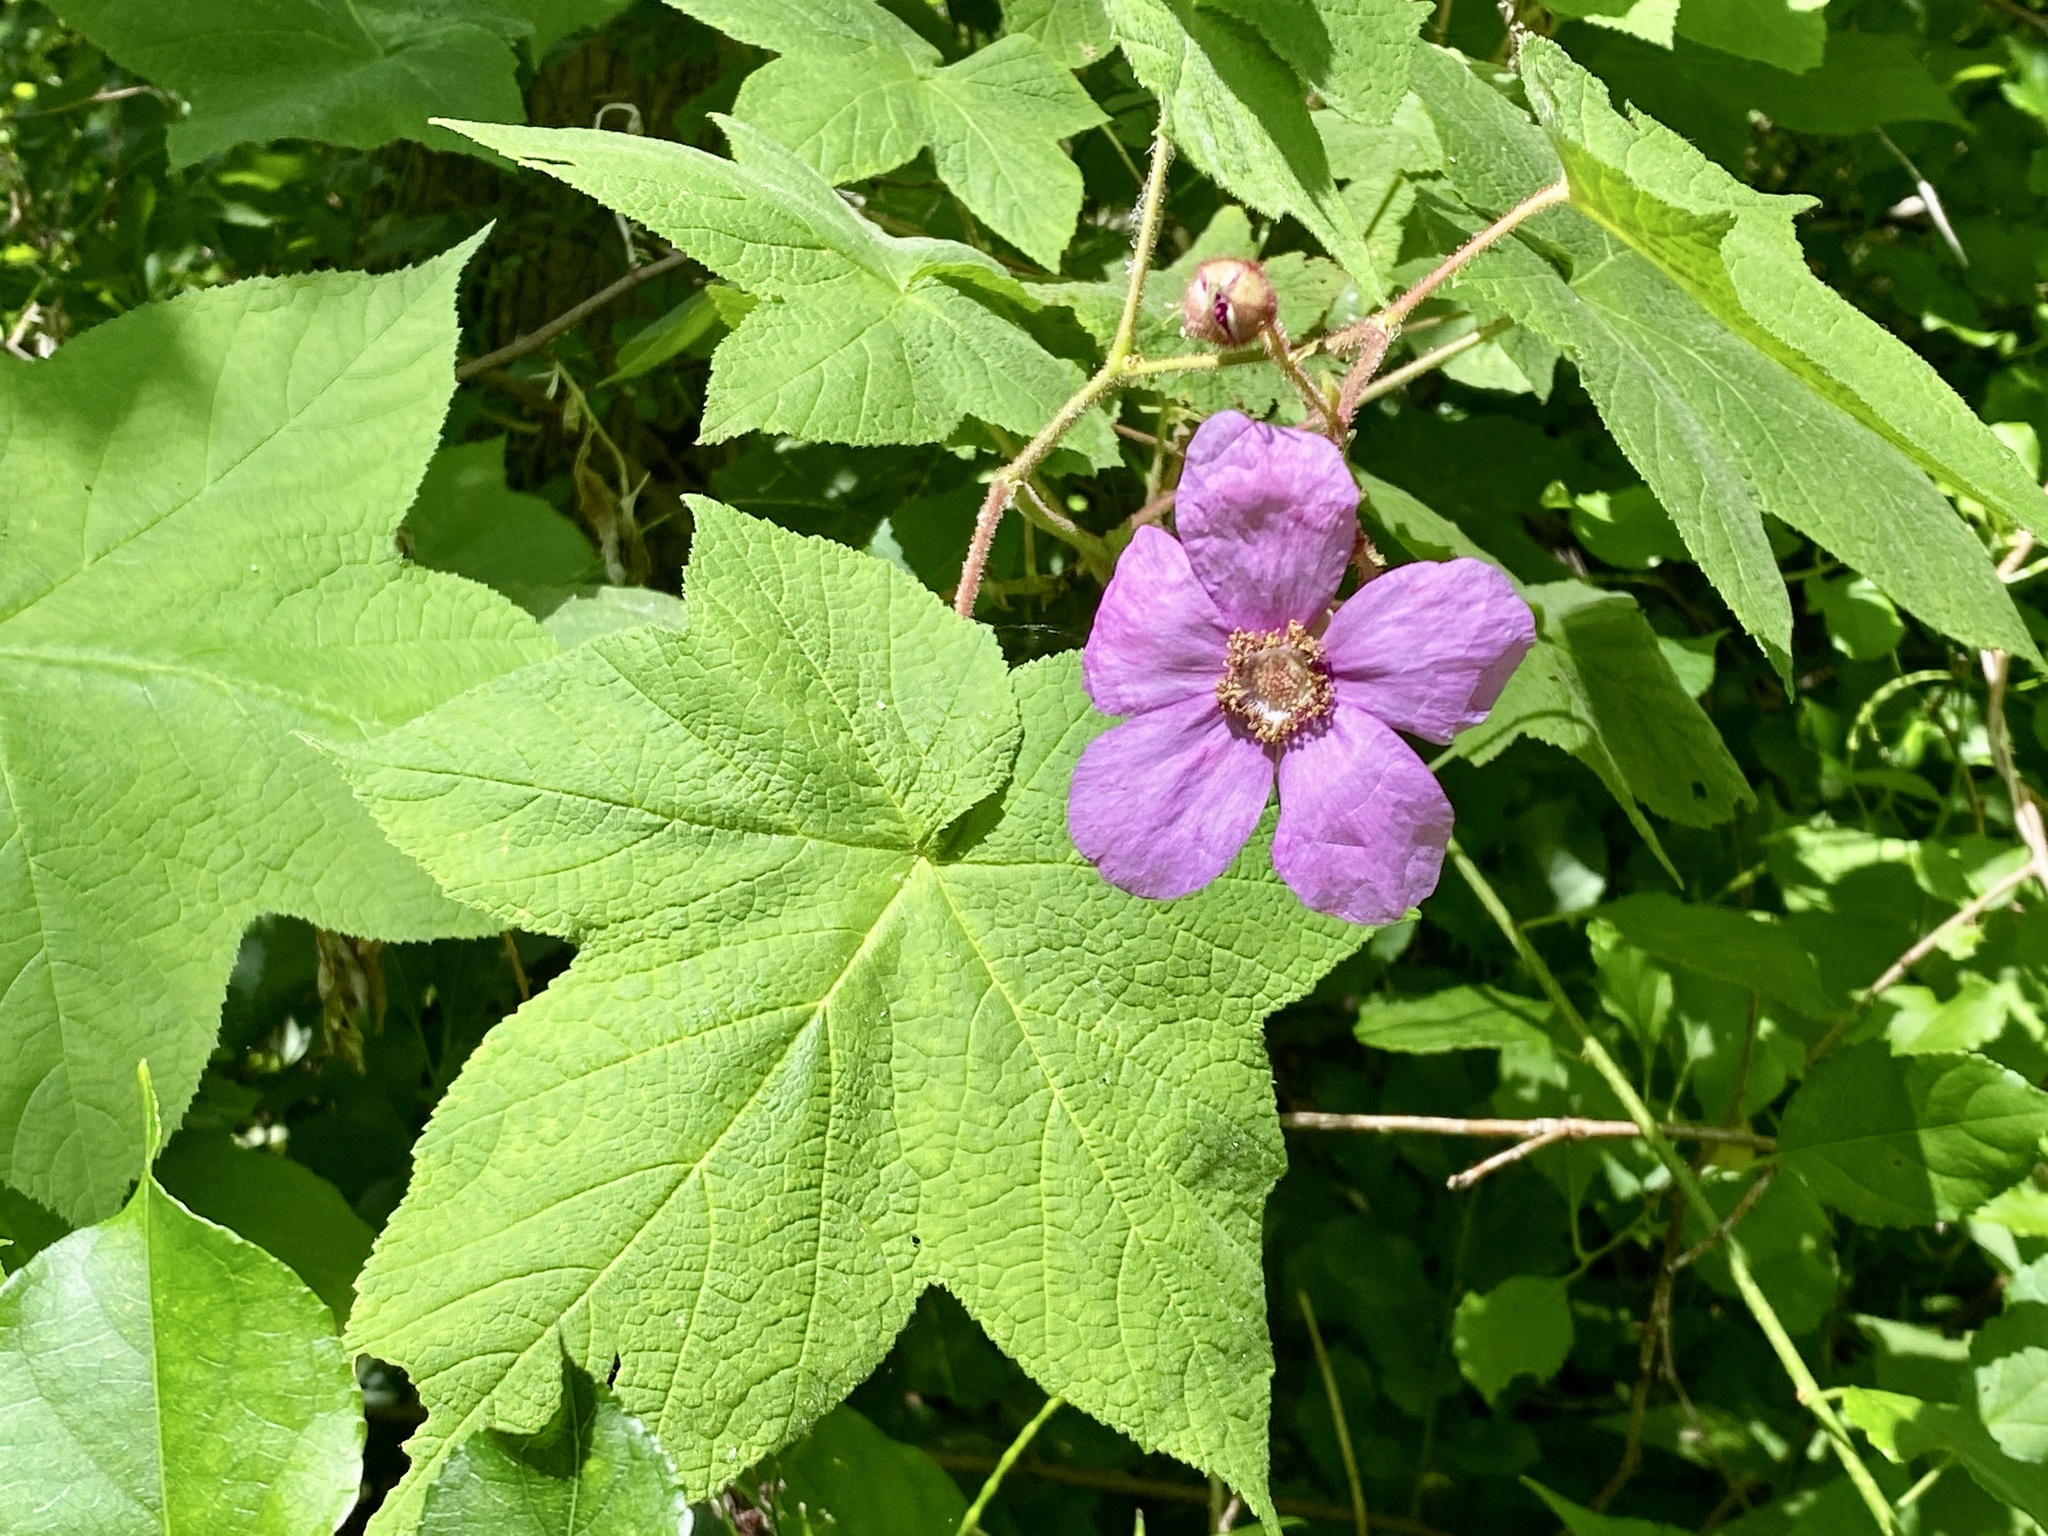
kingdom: Plantae
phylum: Tracheophyta
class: Magnoliopsida
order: Rosales
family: Rosaceae
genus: Rubus
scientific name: Rubus odoratus
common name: Purple-flowered raspberry
